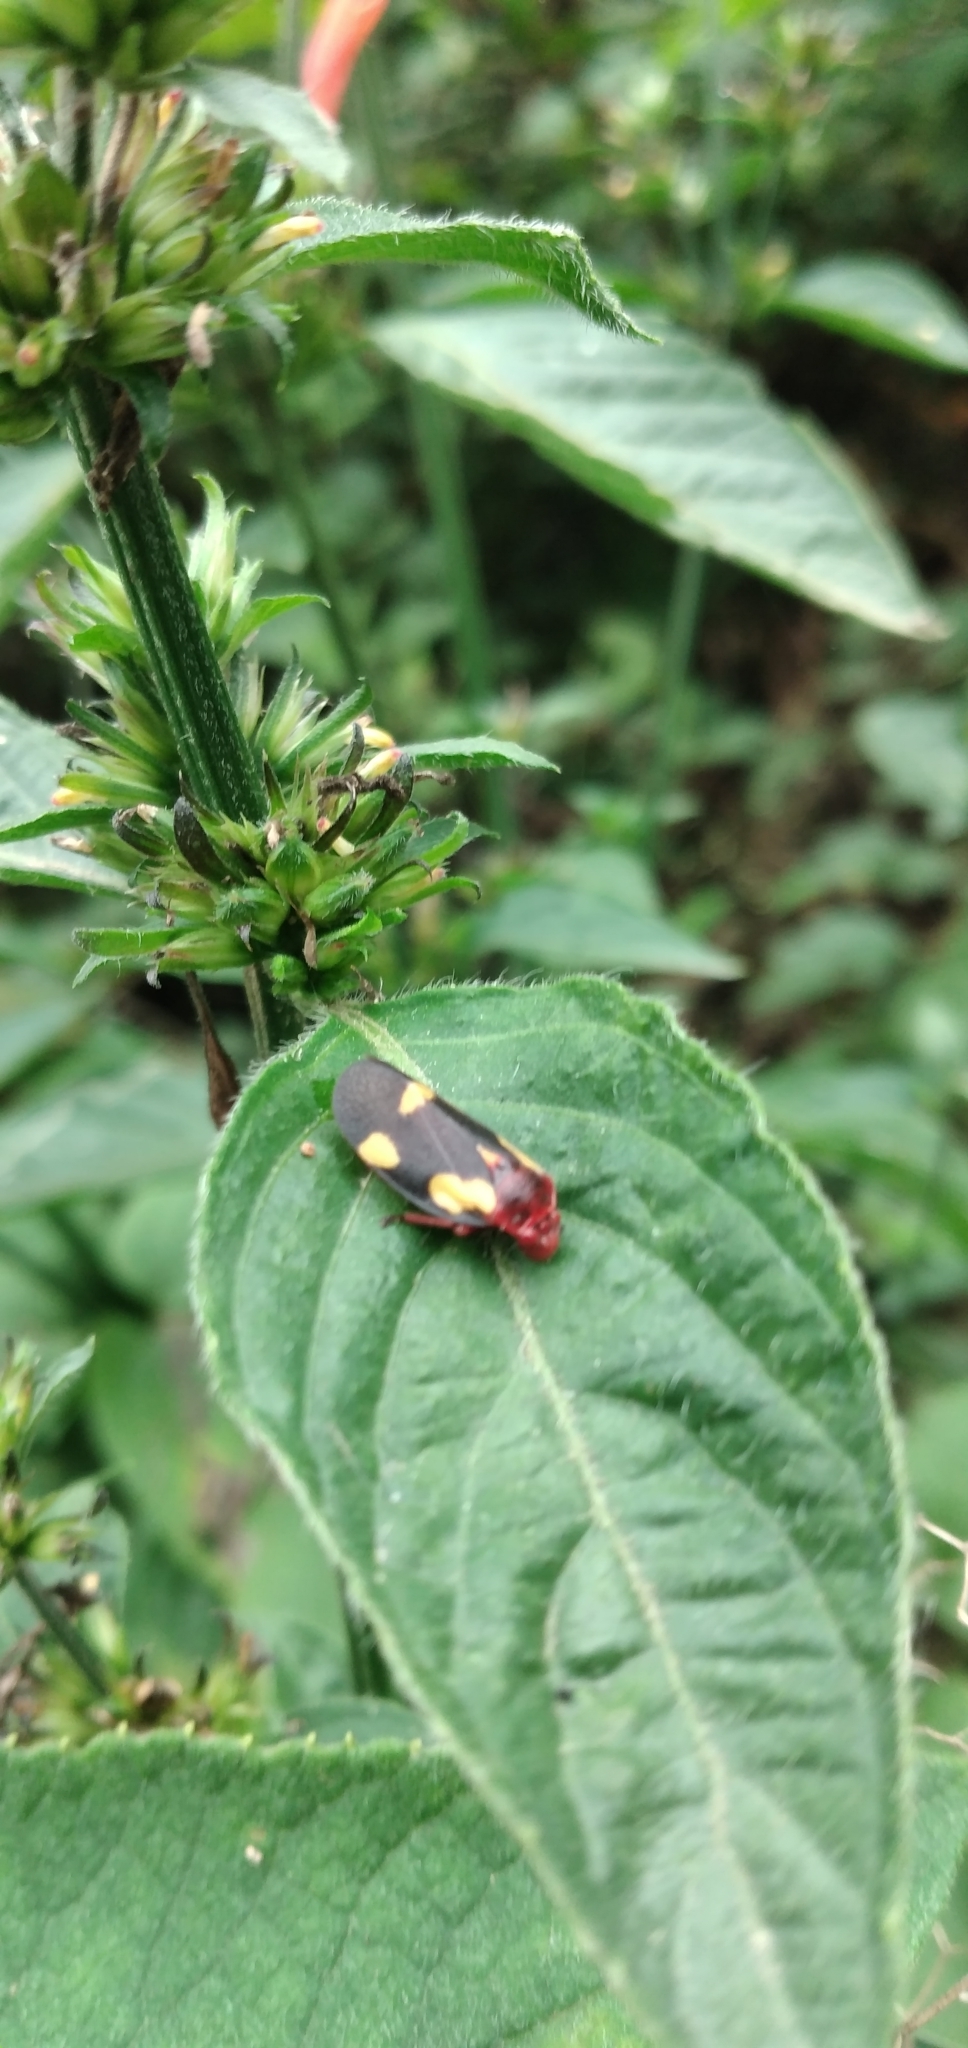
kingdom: Animalia
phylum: Arthropoda
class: Insecta
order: Hemiptera
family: Cercopidae
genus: Sphenorhina
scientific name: Sphenorhina limbata
